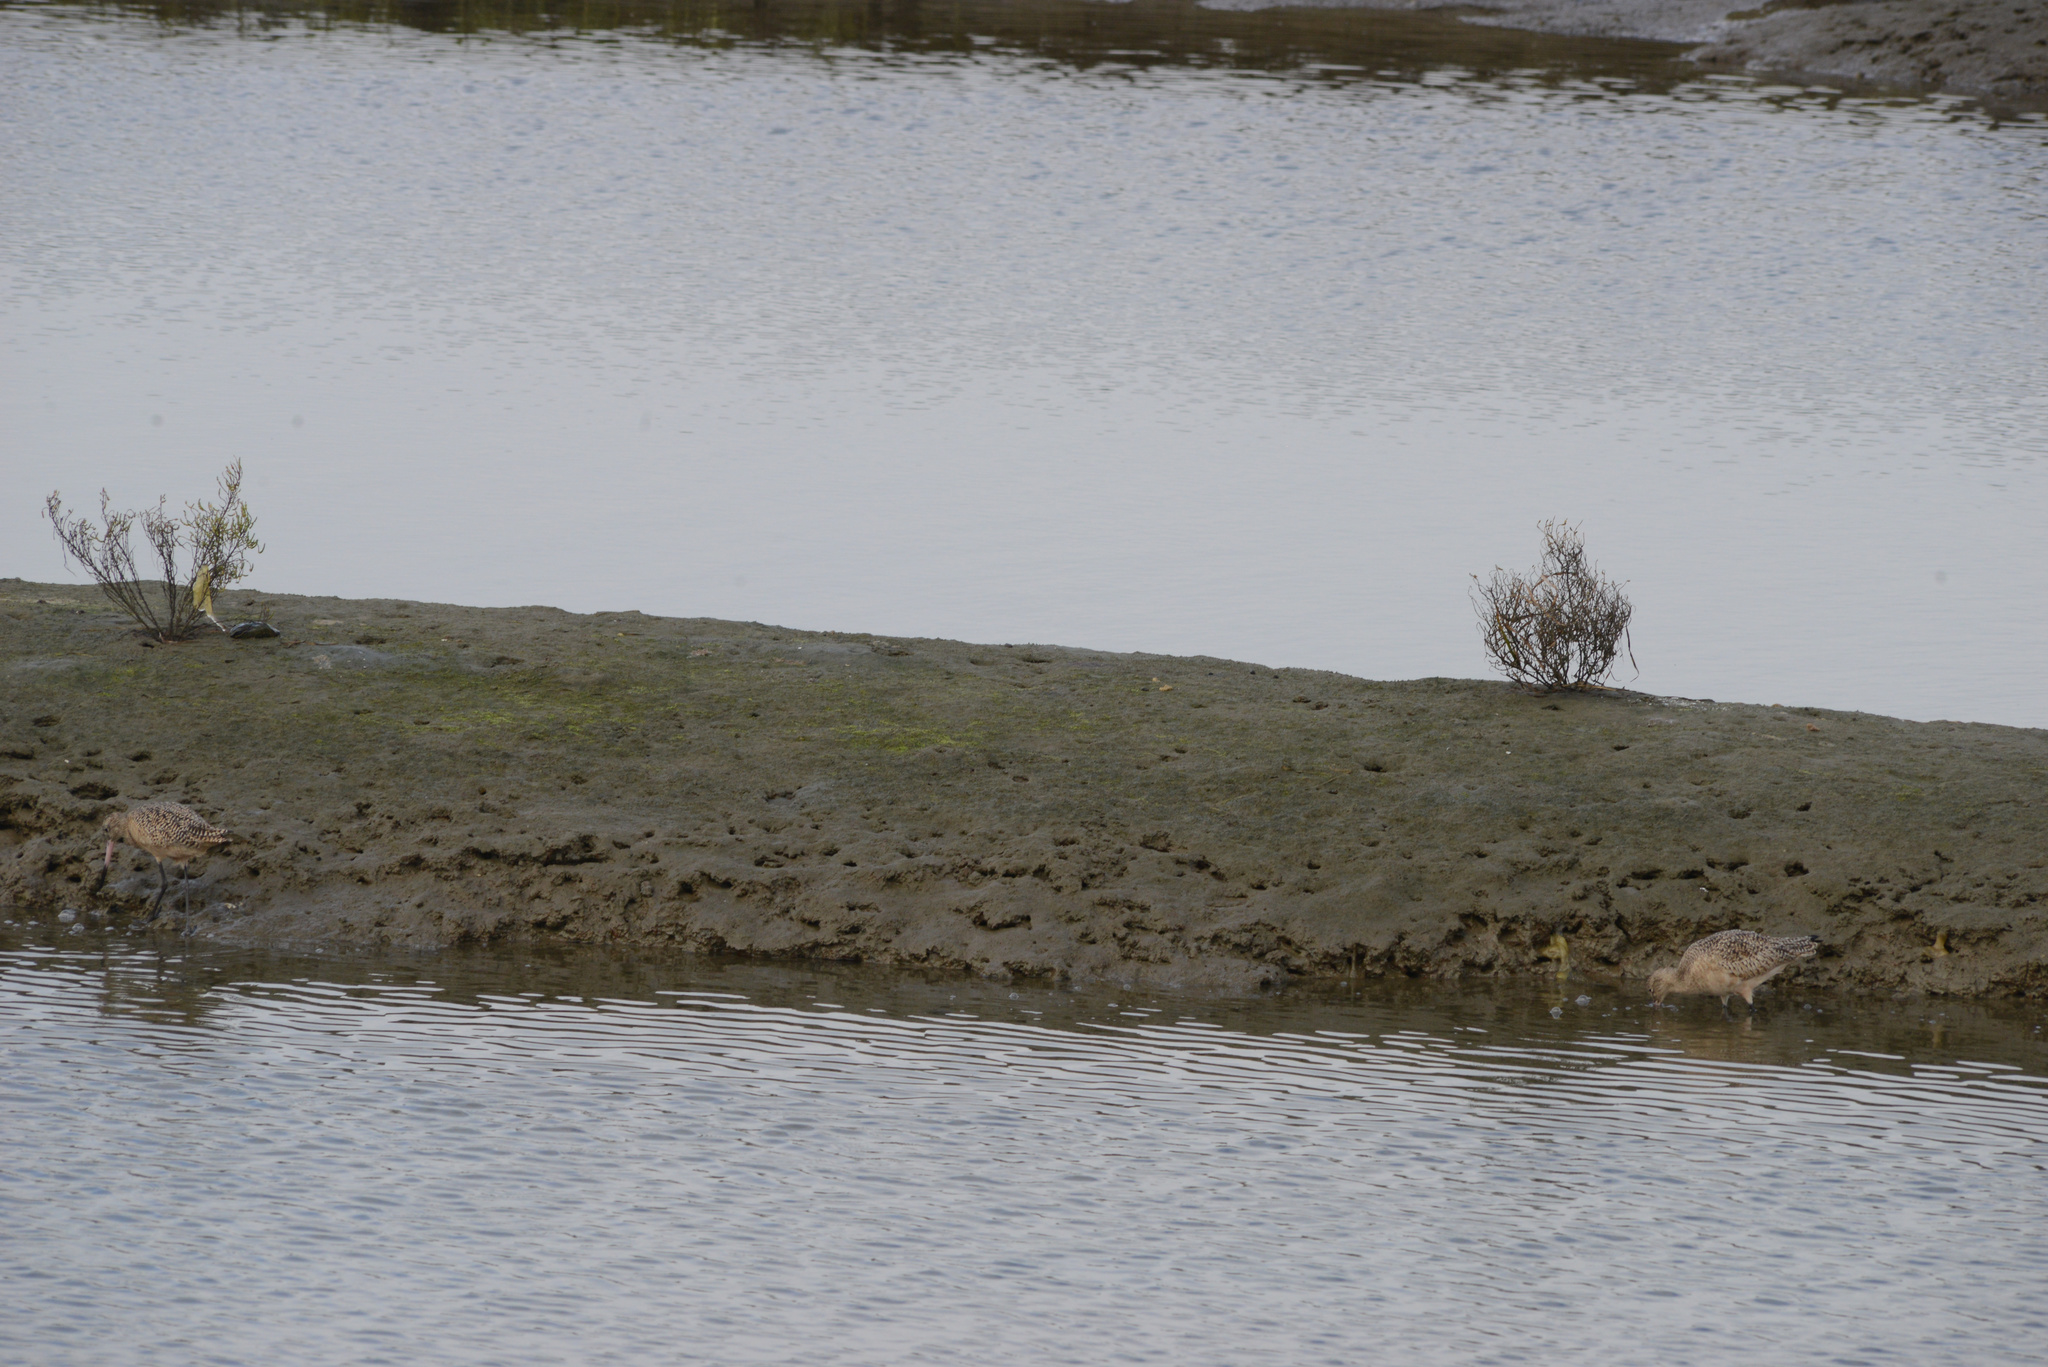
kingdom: Animalia
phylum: Chordata
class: Aves
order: Charadriiformes
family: Scolopacidae
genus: Limosa
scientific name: Limosa fedoa
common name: Marbled godwit
